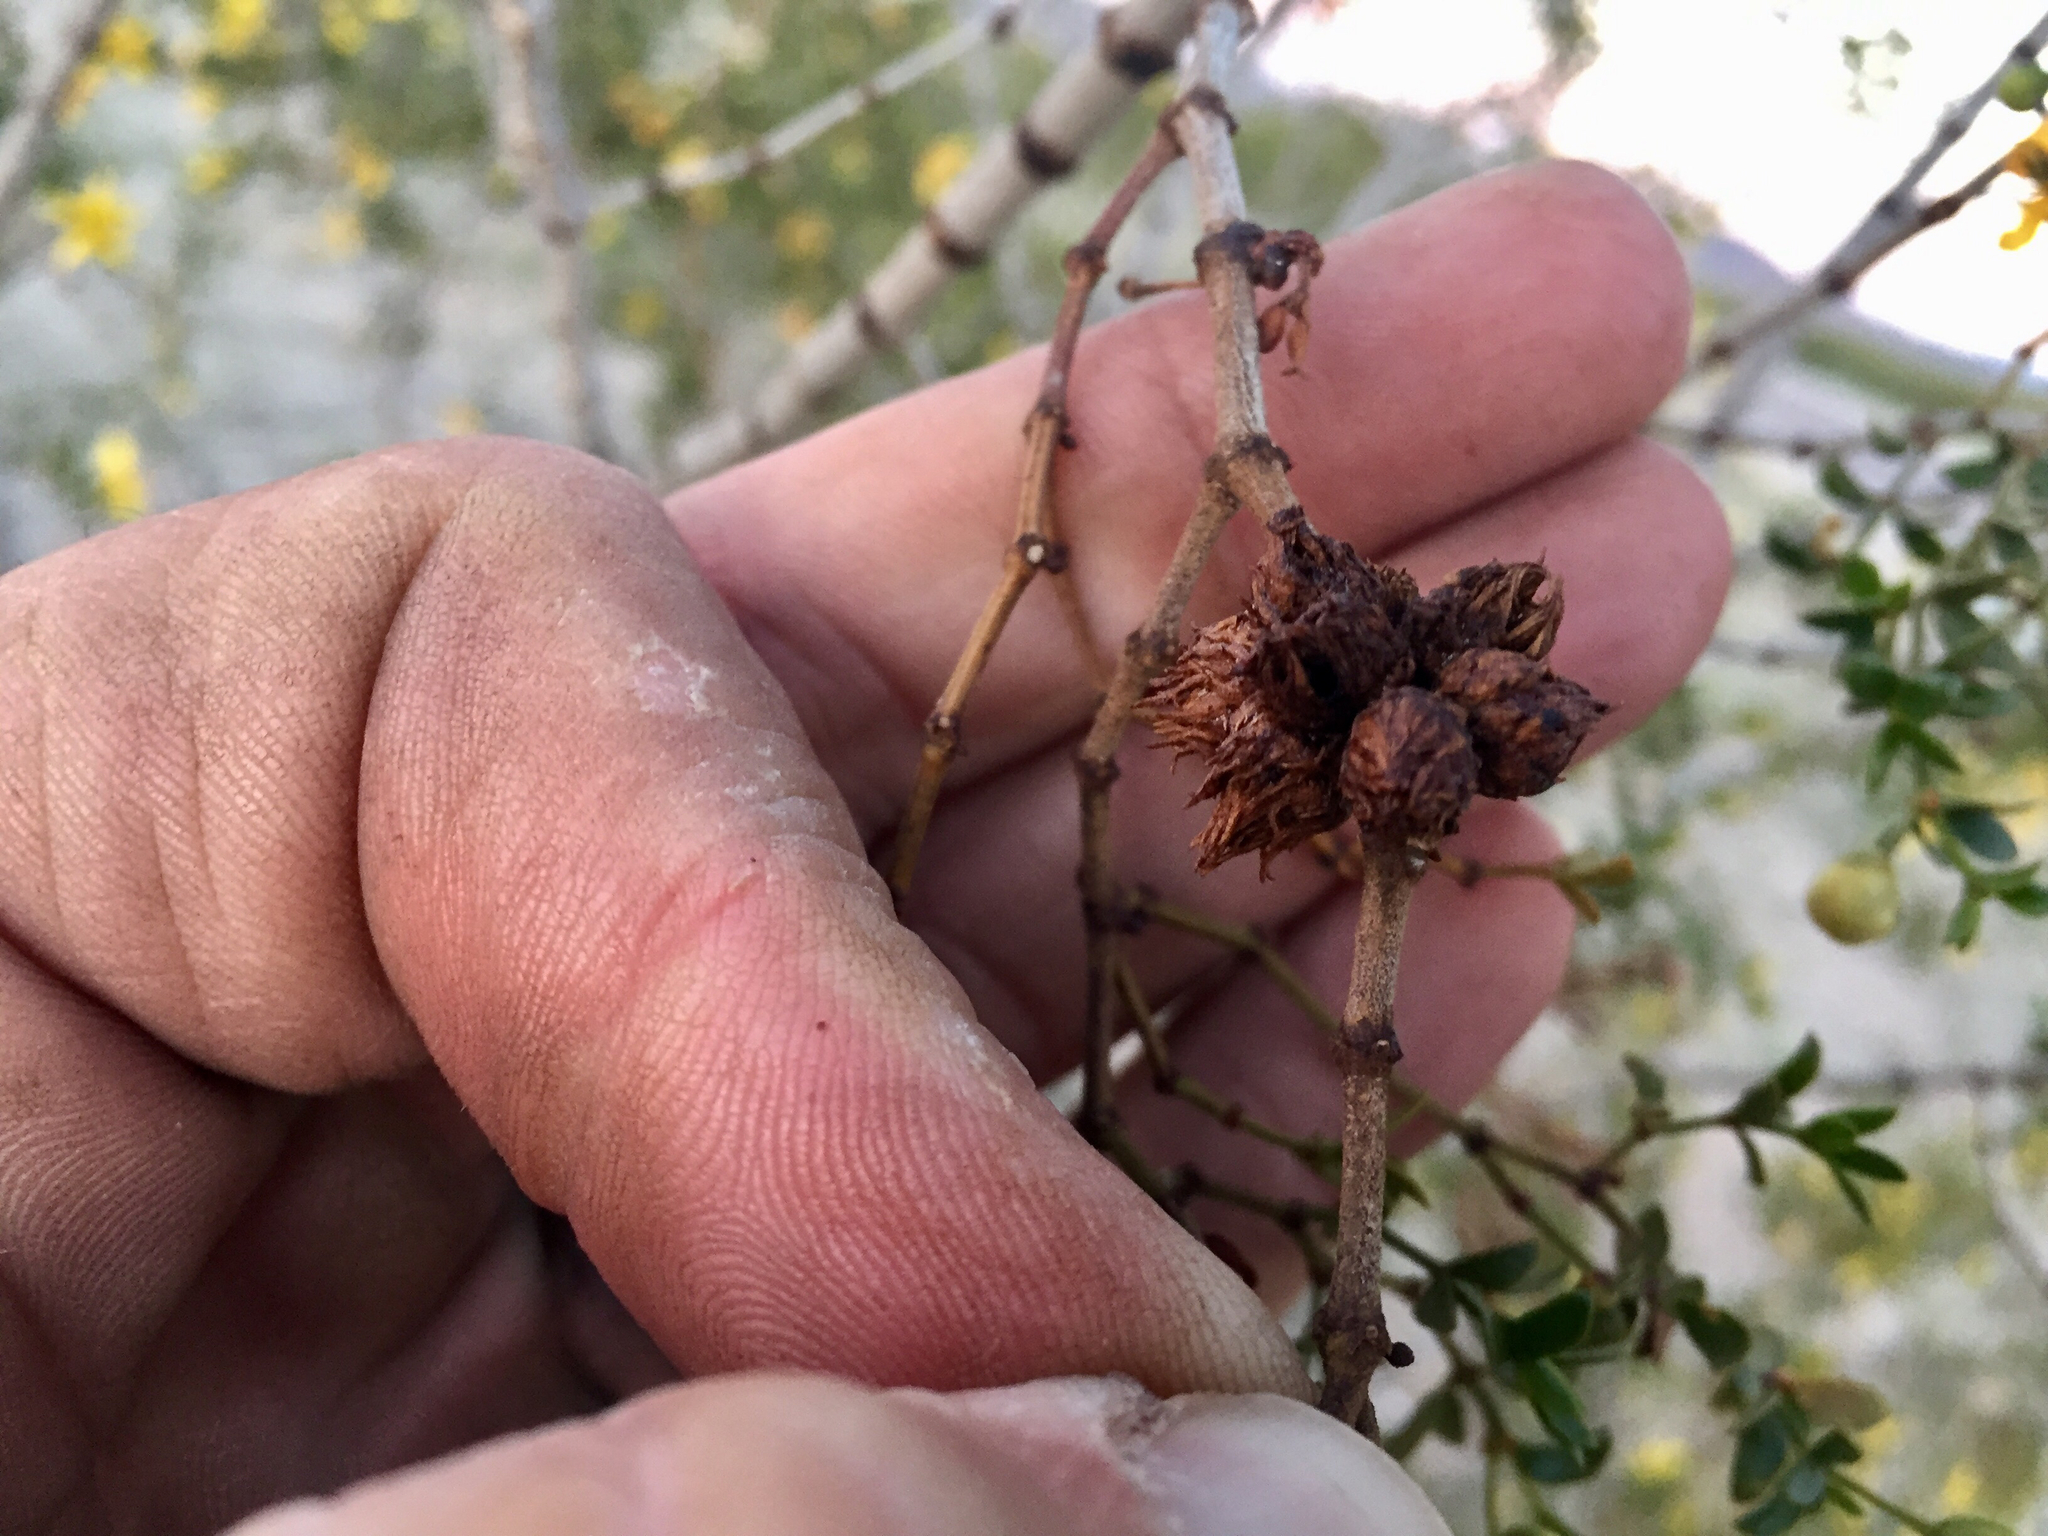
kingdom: Animalia
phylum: Arthropoda
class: Insecta
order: Diptera
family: Cecidomyiidae
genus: Asphondylia
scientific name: Asphondylia foliosa
